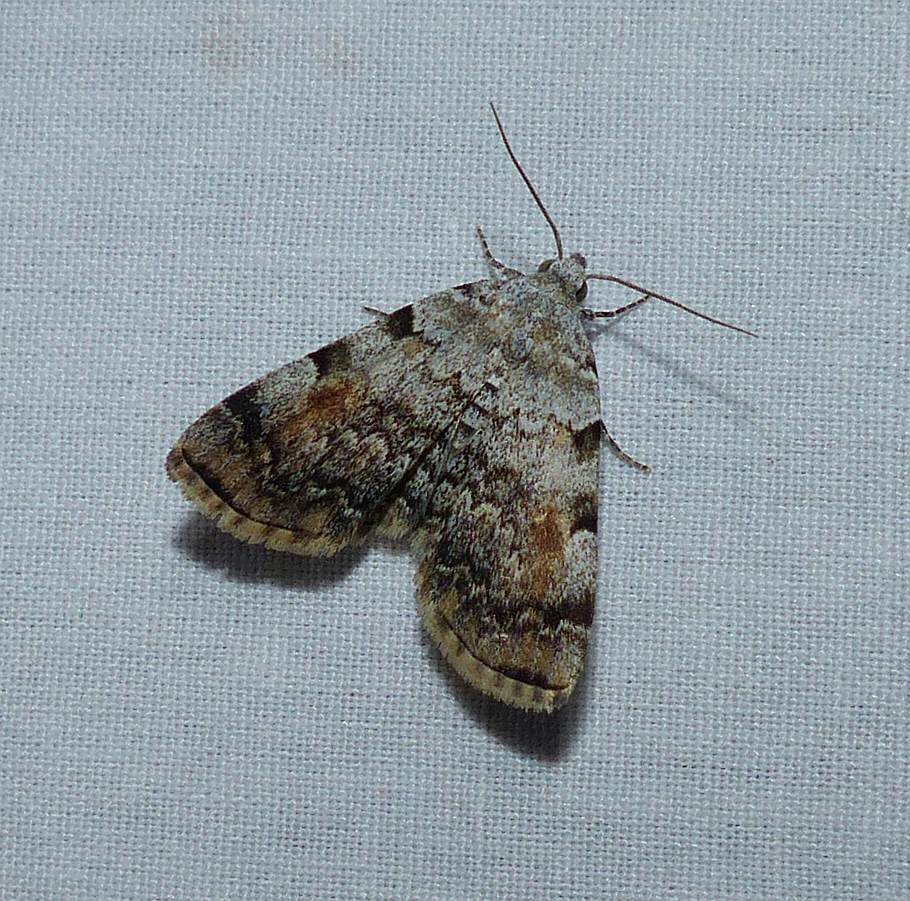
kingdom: Animalia
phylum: Arthropoda
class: Insecta
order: Lepidoptera
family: Erebidae
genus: Idia
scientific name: Idia americalis
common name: American idia moth
